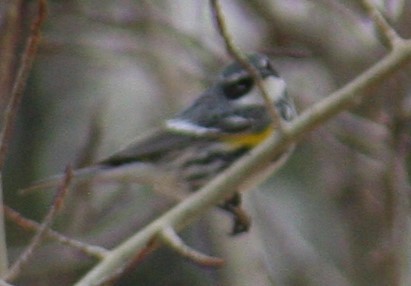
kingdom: Animalia
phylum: Chordata
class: Aves
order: Passeriformes
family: Parulidae
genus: Setophaga
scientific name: Setophaga coronata
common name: Myrtle warbler
